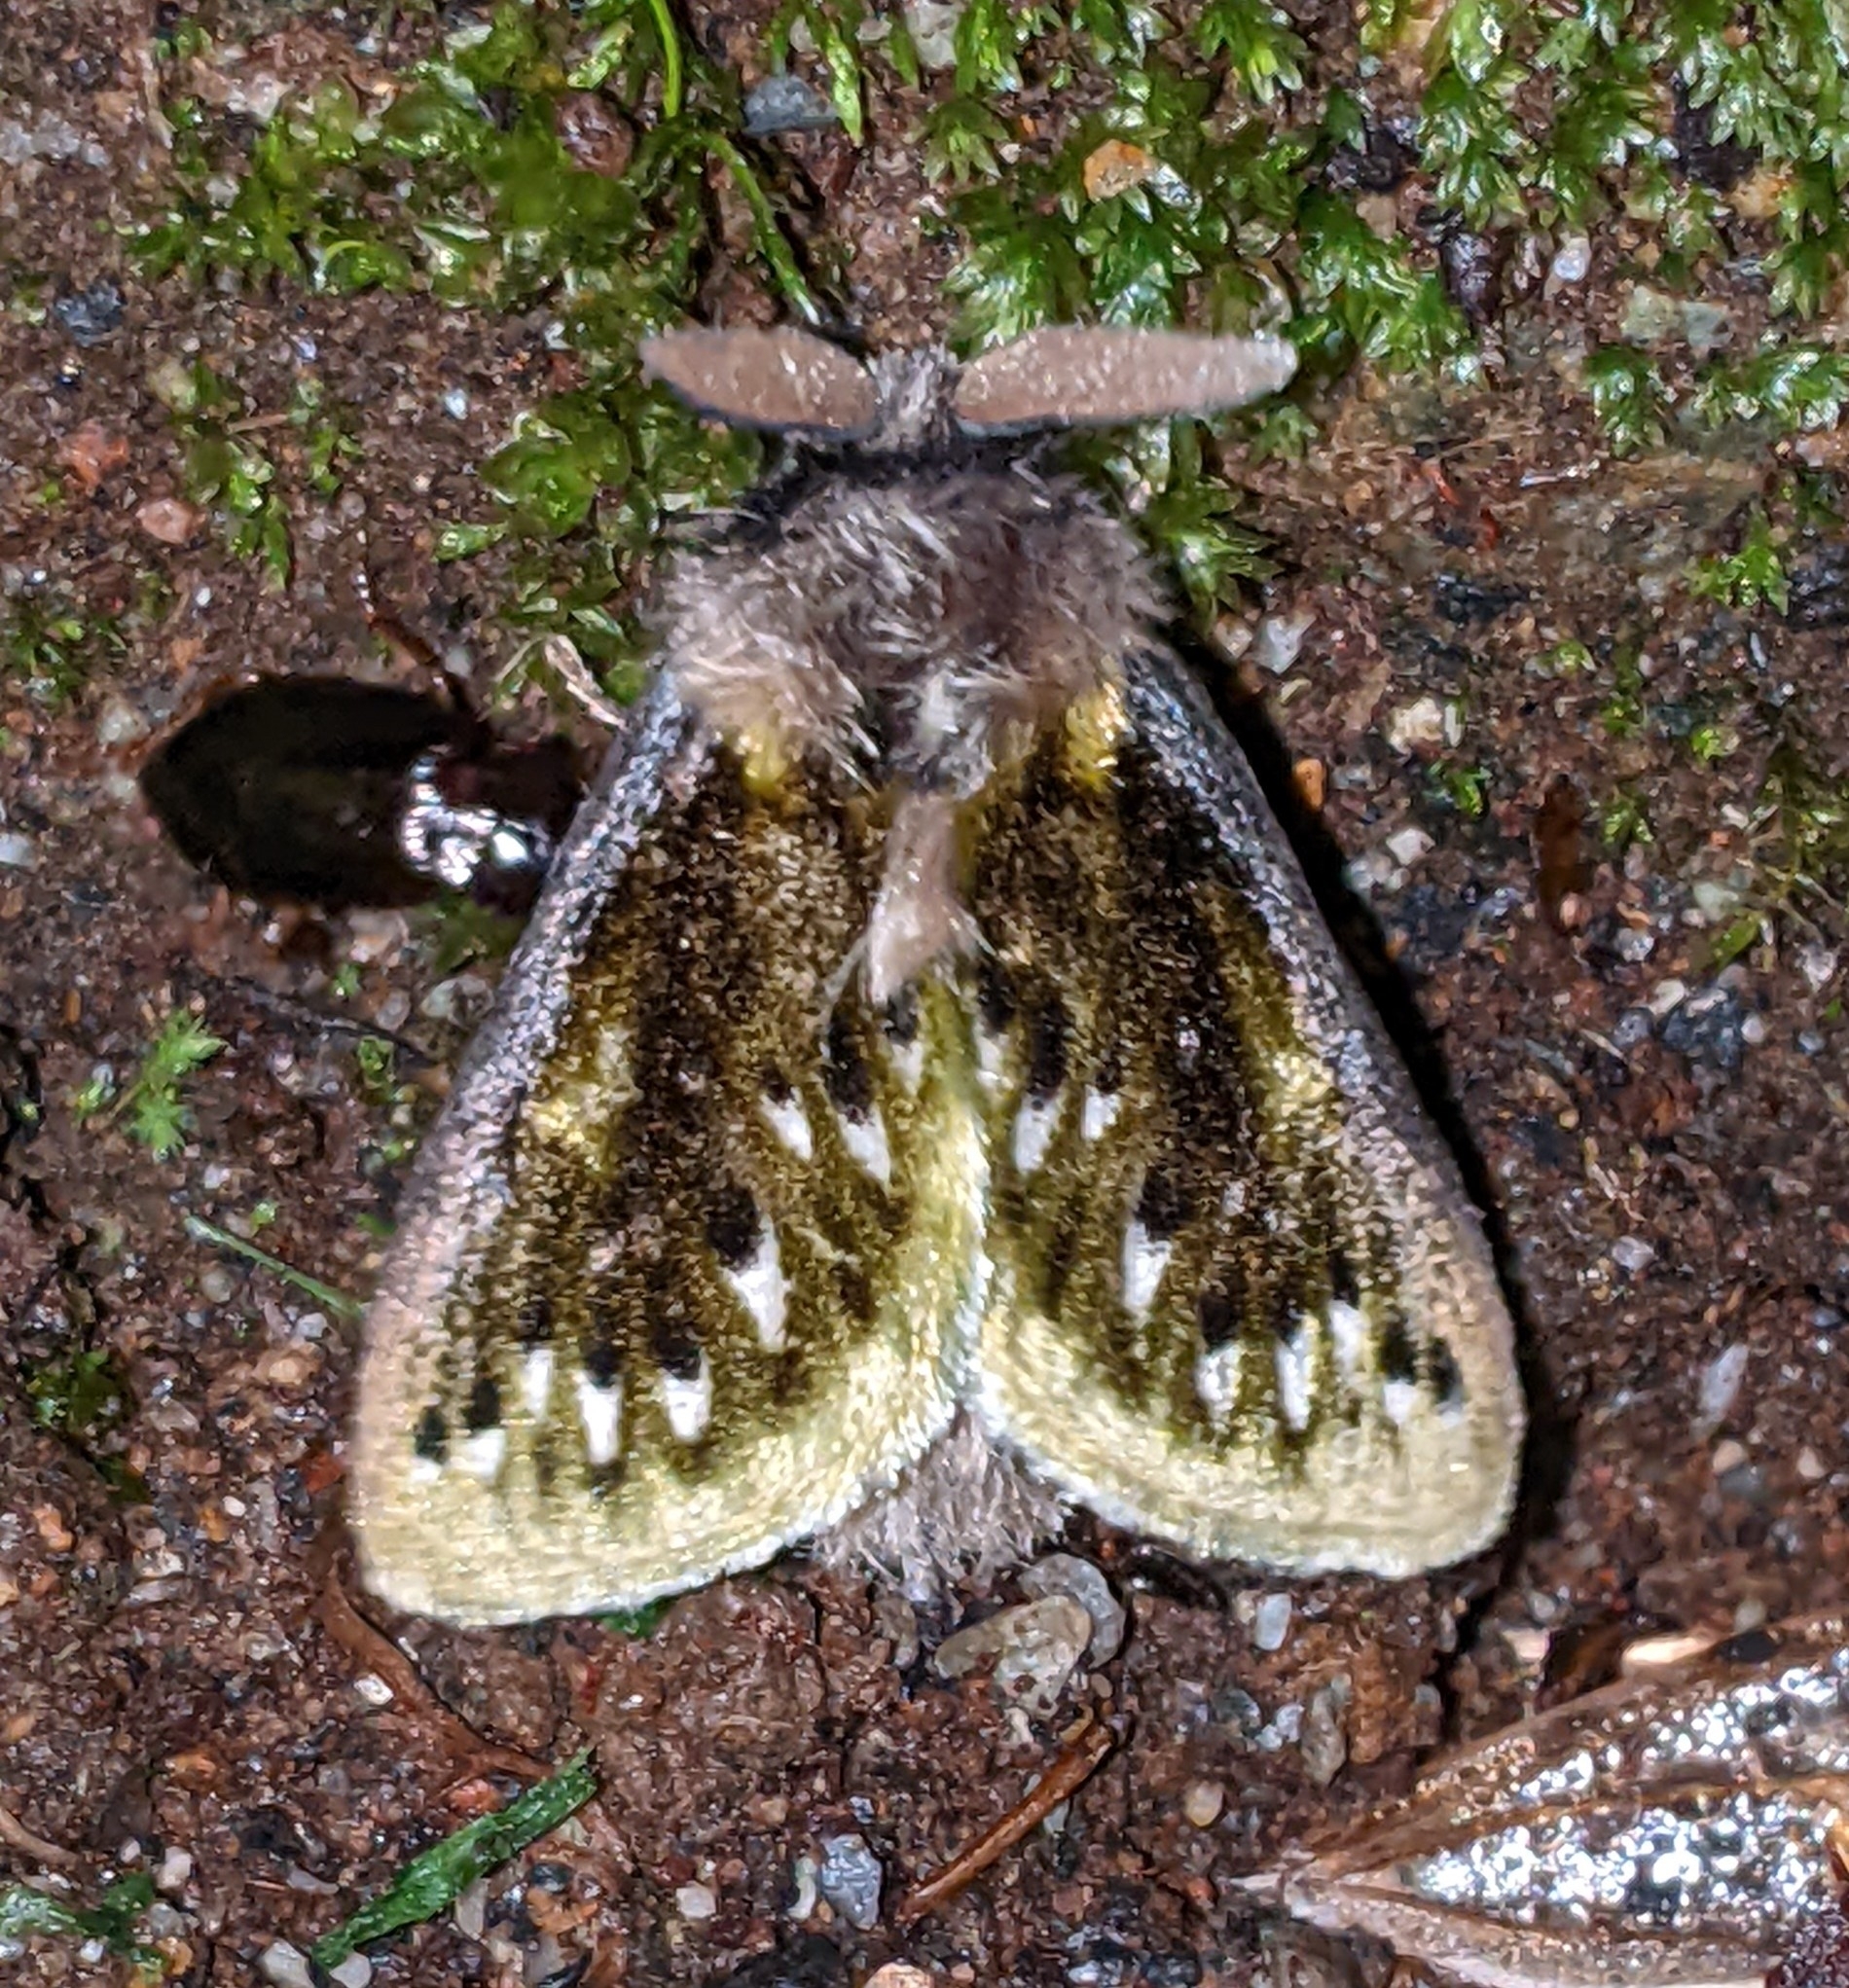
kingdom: Animalia
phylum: Arthropoda
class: Insecta
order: Lepidoptera
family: Megalopygidae
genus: Macara
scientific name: Macara alydda
